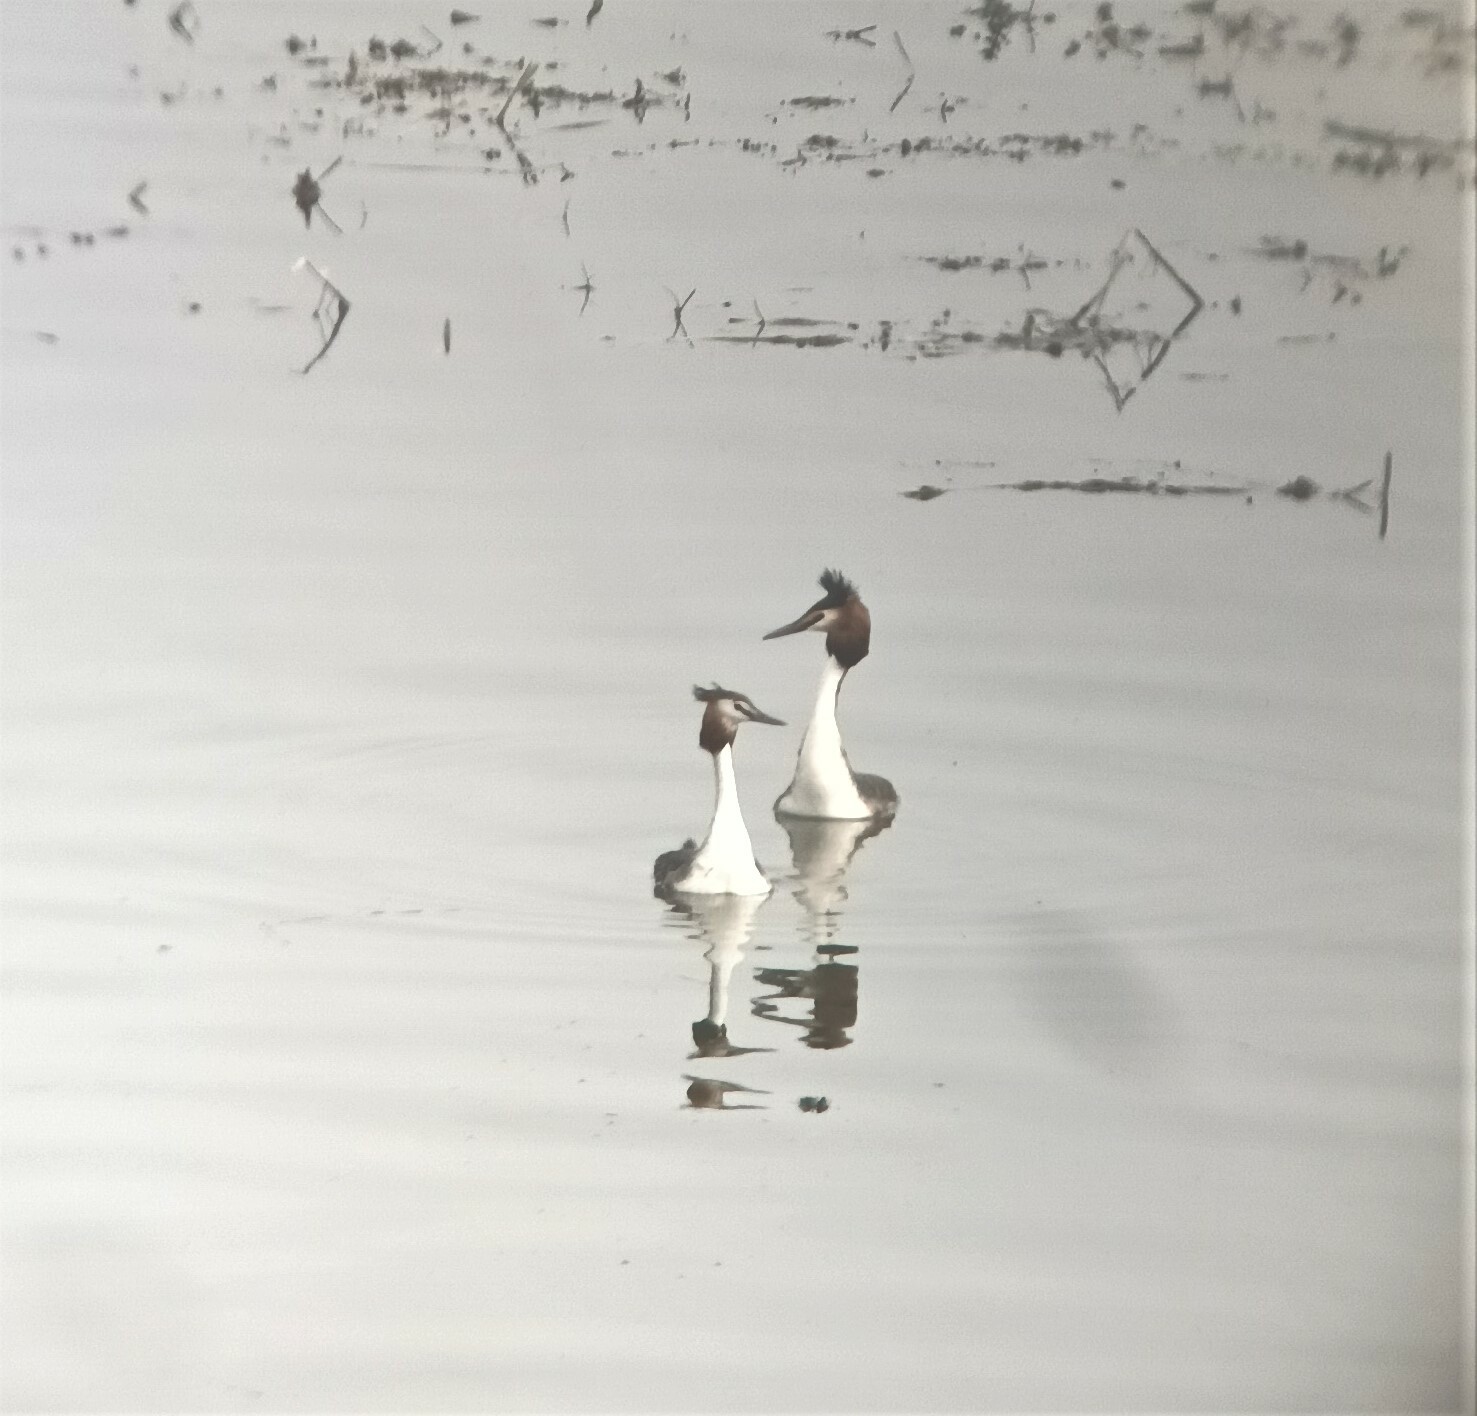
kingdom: Animalia
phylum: Chordata
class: Aves
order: Podicipediformes
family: Podicipedidae
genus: Podiceps
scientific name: Podiceps cristatus
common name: Great crested grebe
